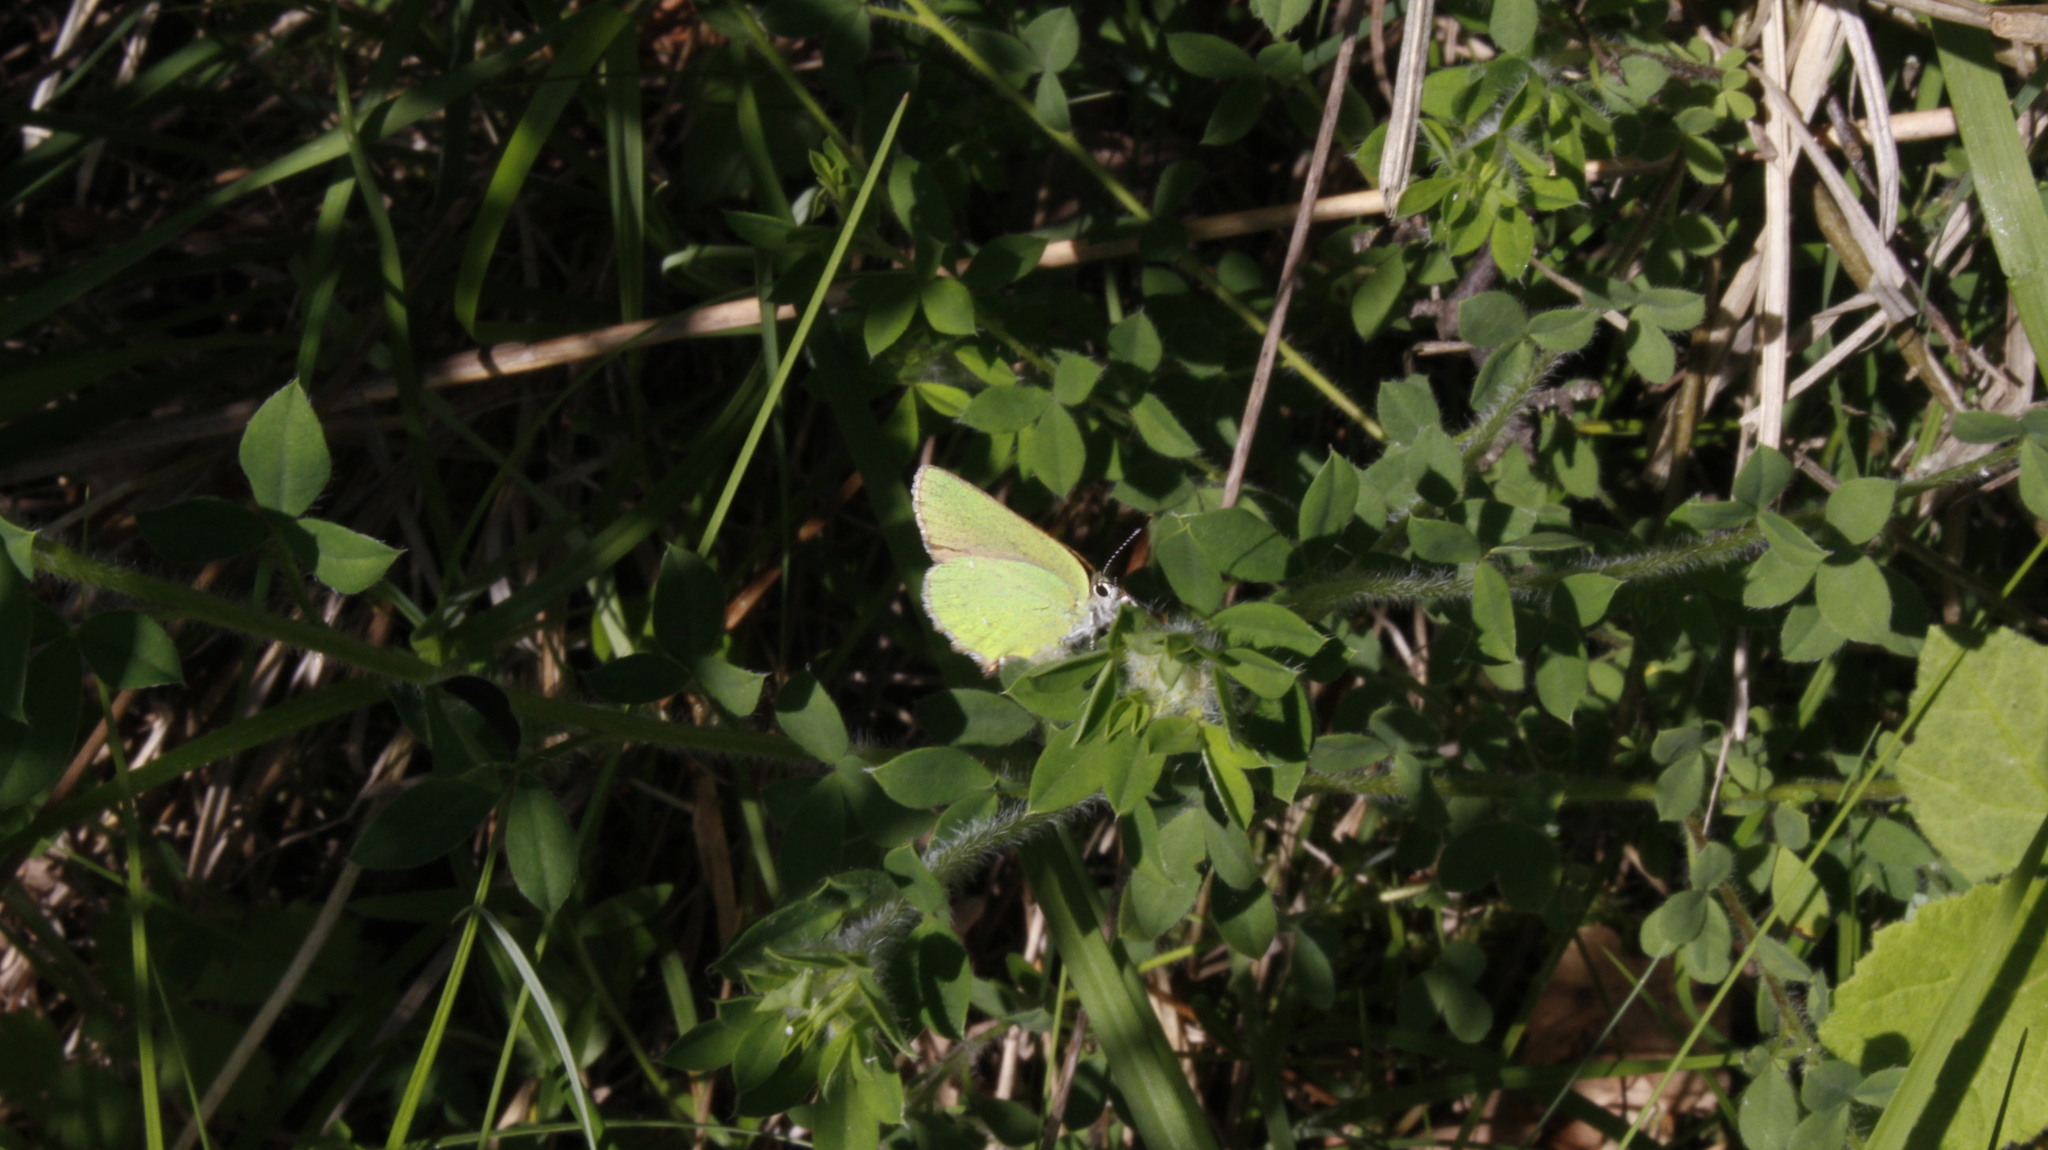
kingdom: Animalia
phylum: Arthropoda
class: Insecta
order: Lepidoptera
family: Lycaenidae
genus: Callophrys
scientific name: Callophrys rubi
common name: Green hairstreak
